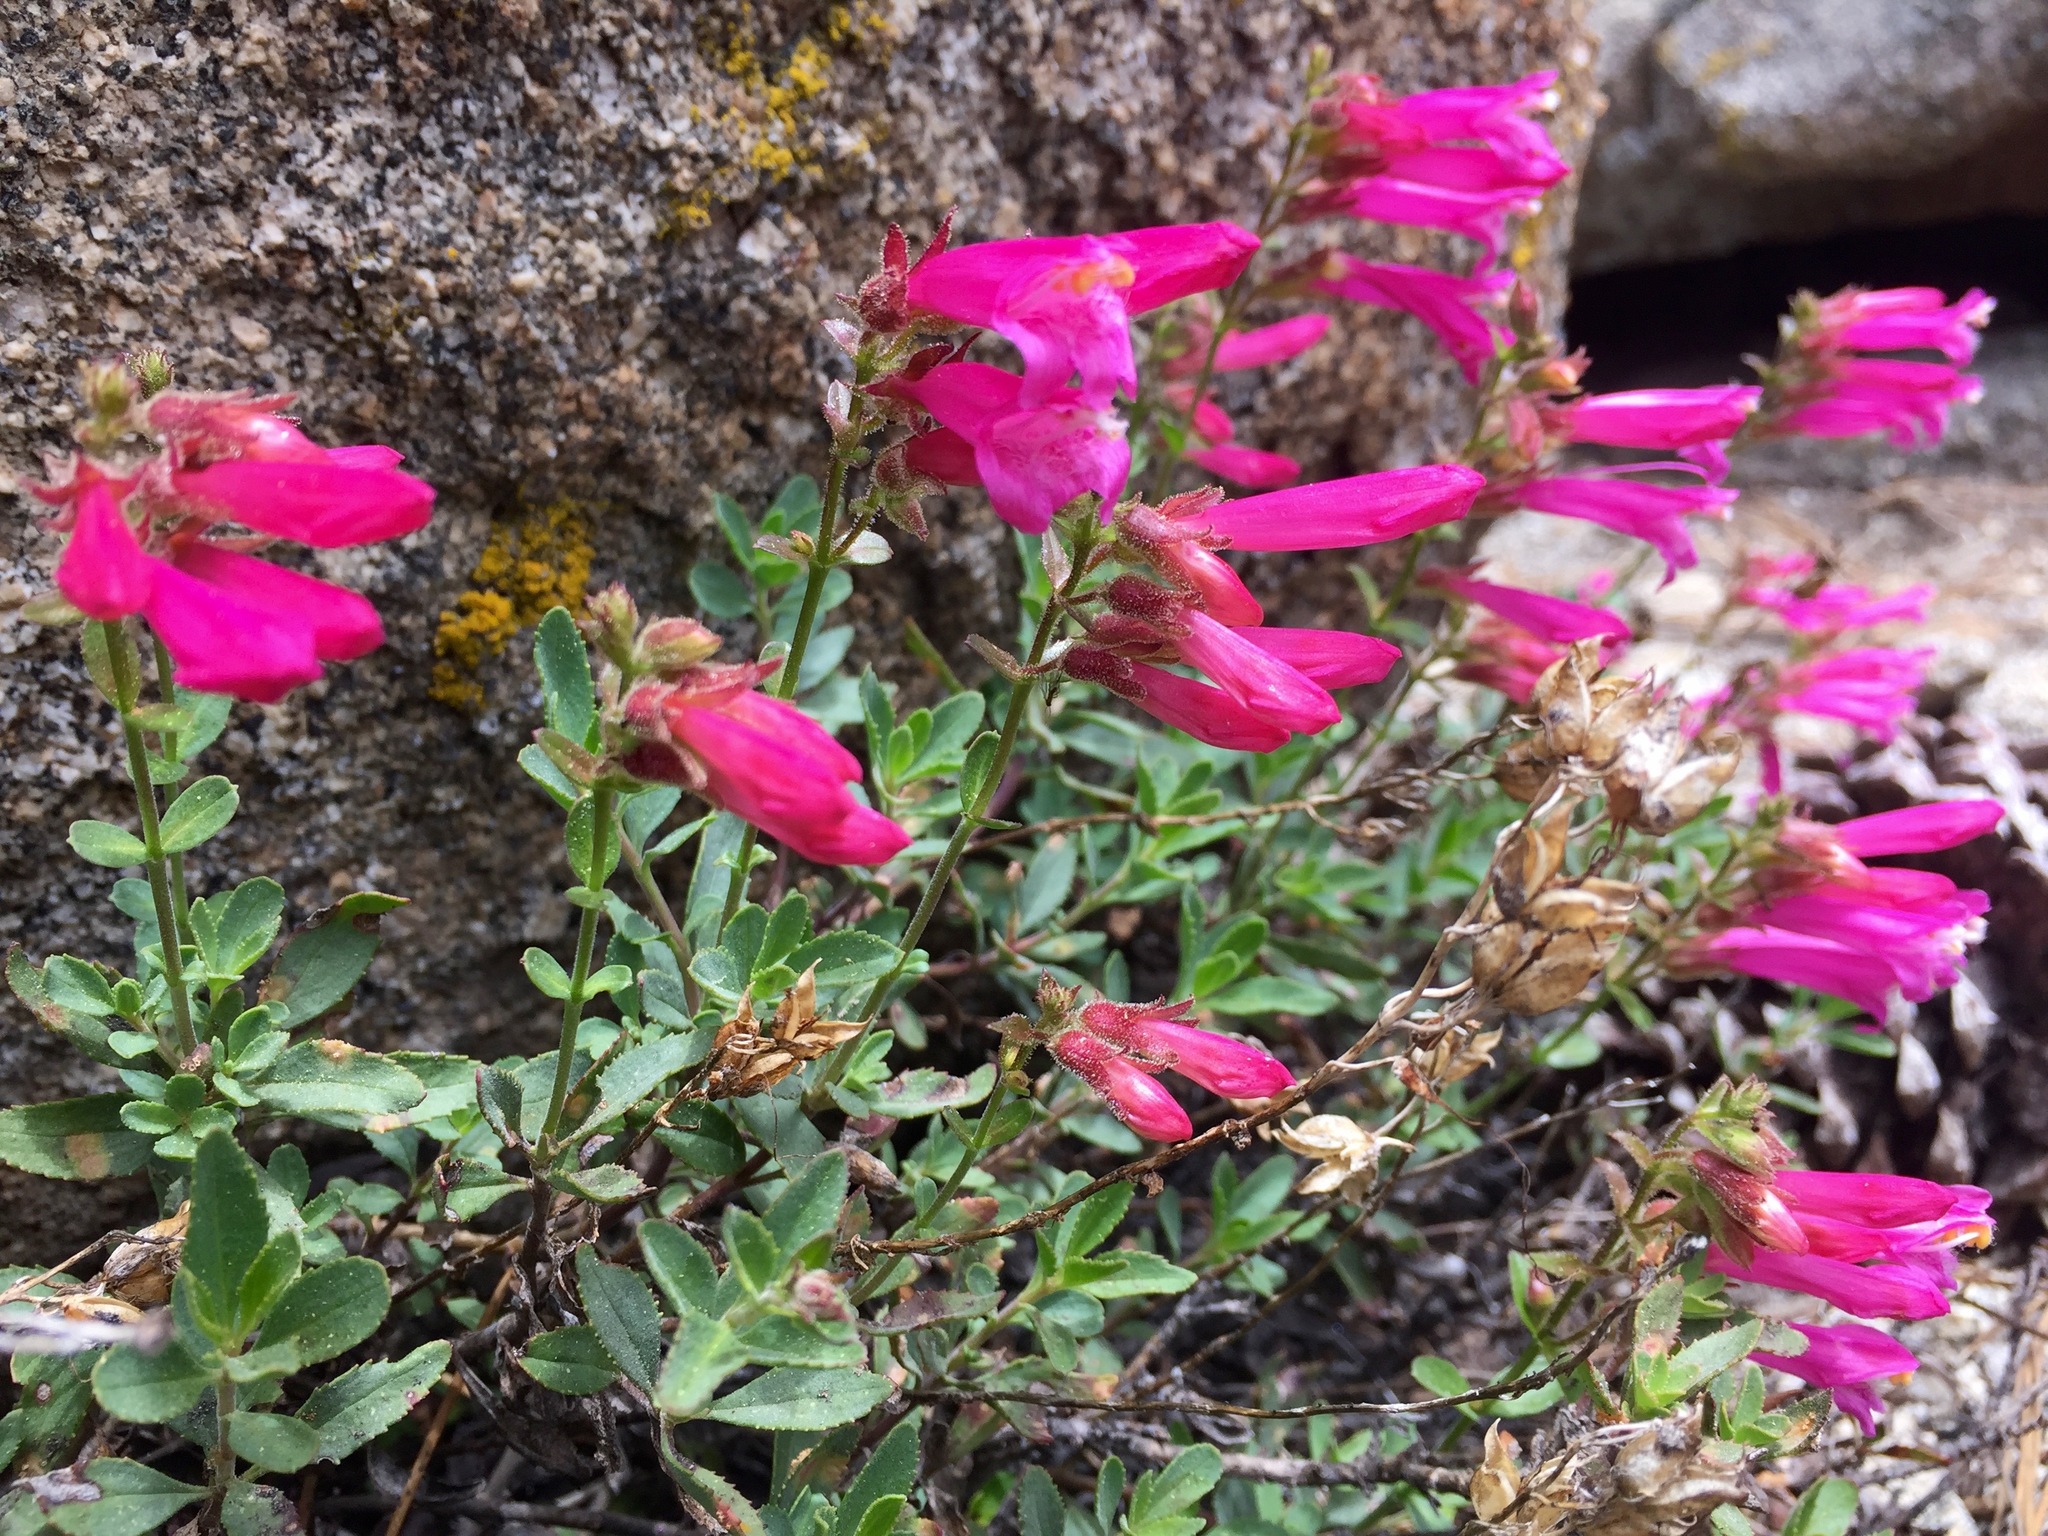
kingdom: Plantae
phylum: Tracheophyta
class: Magnoliopsida
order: Lamiales
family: Plantaginaceae
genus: Penstemon
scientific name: Penstemon newberryi
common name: Mountain-pride
